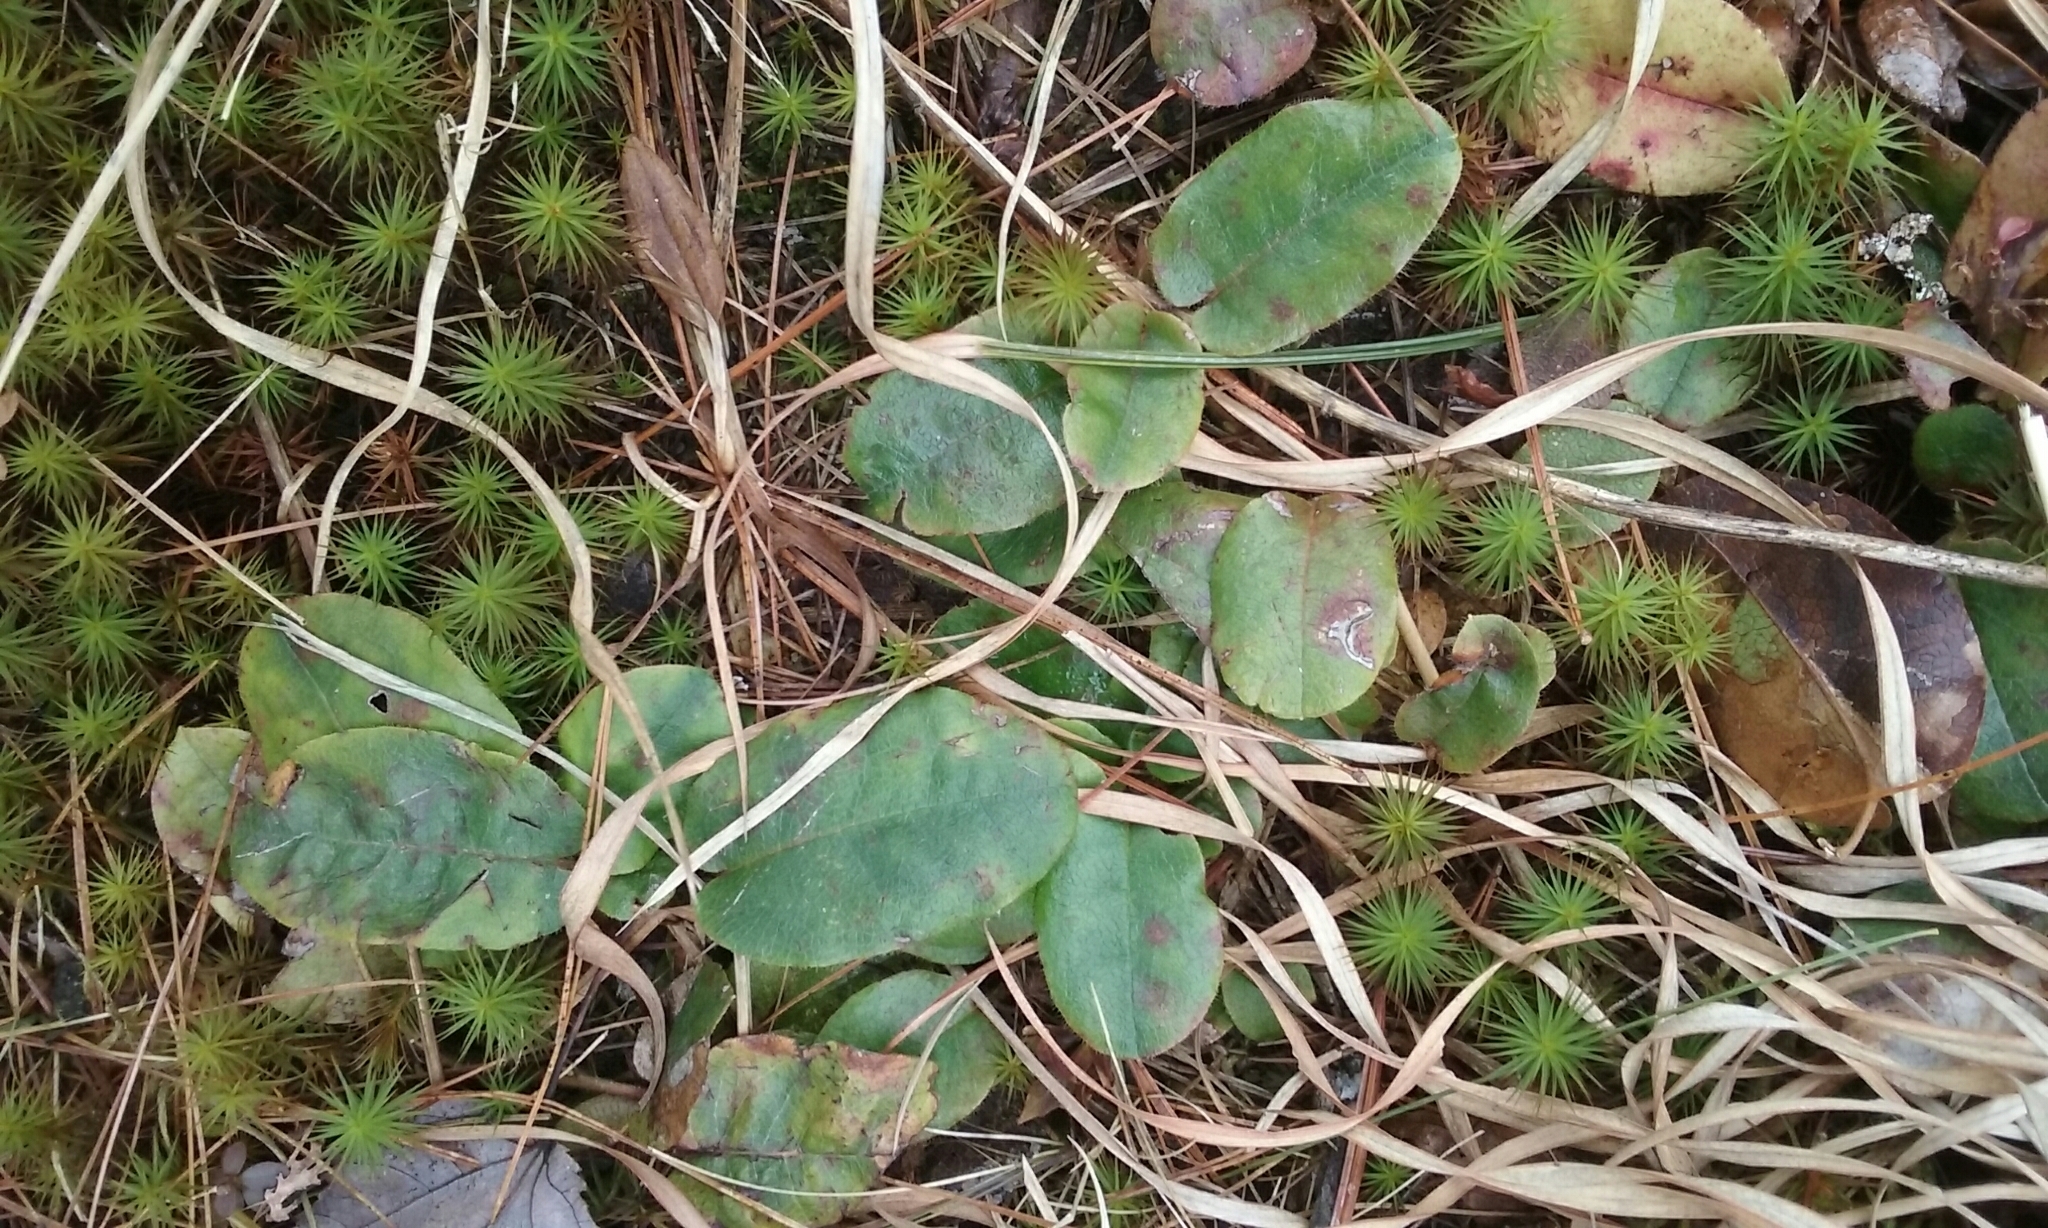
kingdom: Plantae
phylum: Tracheophyta
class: Magnoliopsida
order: Ericales
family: Ericaceae
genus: Epigaea
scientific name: Epigaea repens
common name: Gravelroot
